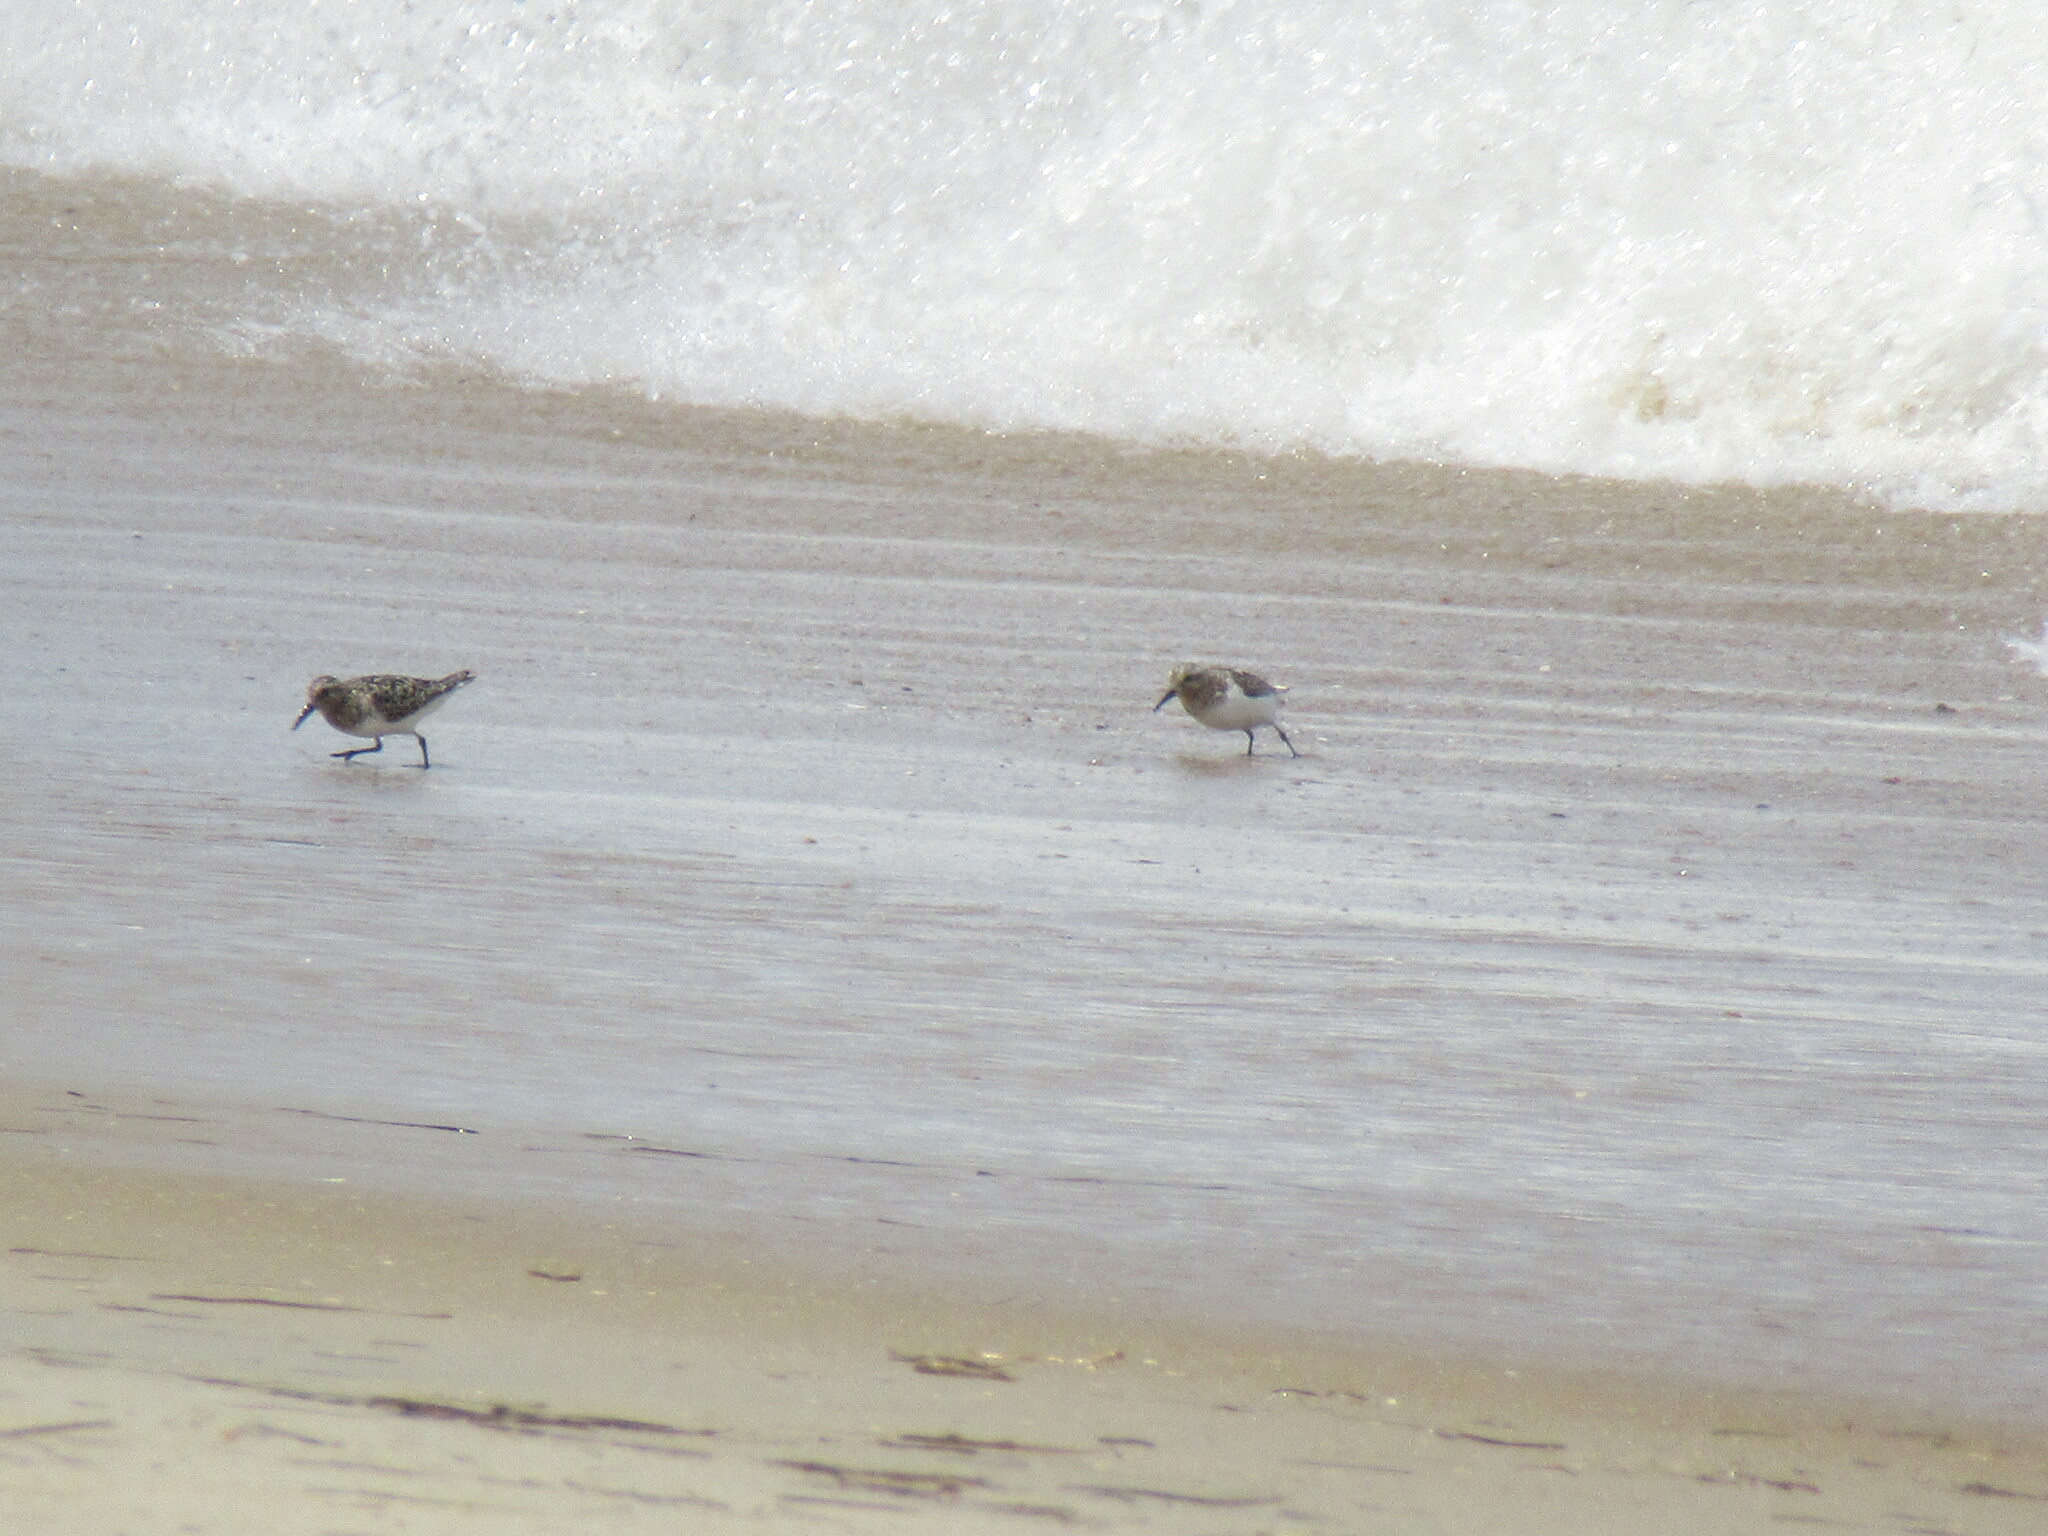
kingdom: Animalia
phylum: Chordata
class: Aves
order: Charadriiformes
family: Scolopacidae
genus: Calidris
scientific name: Calidris alba
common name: Sanderling
